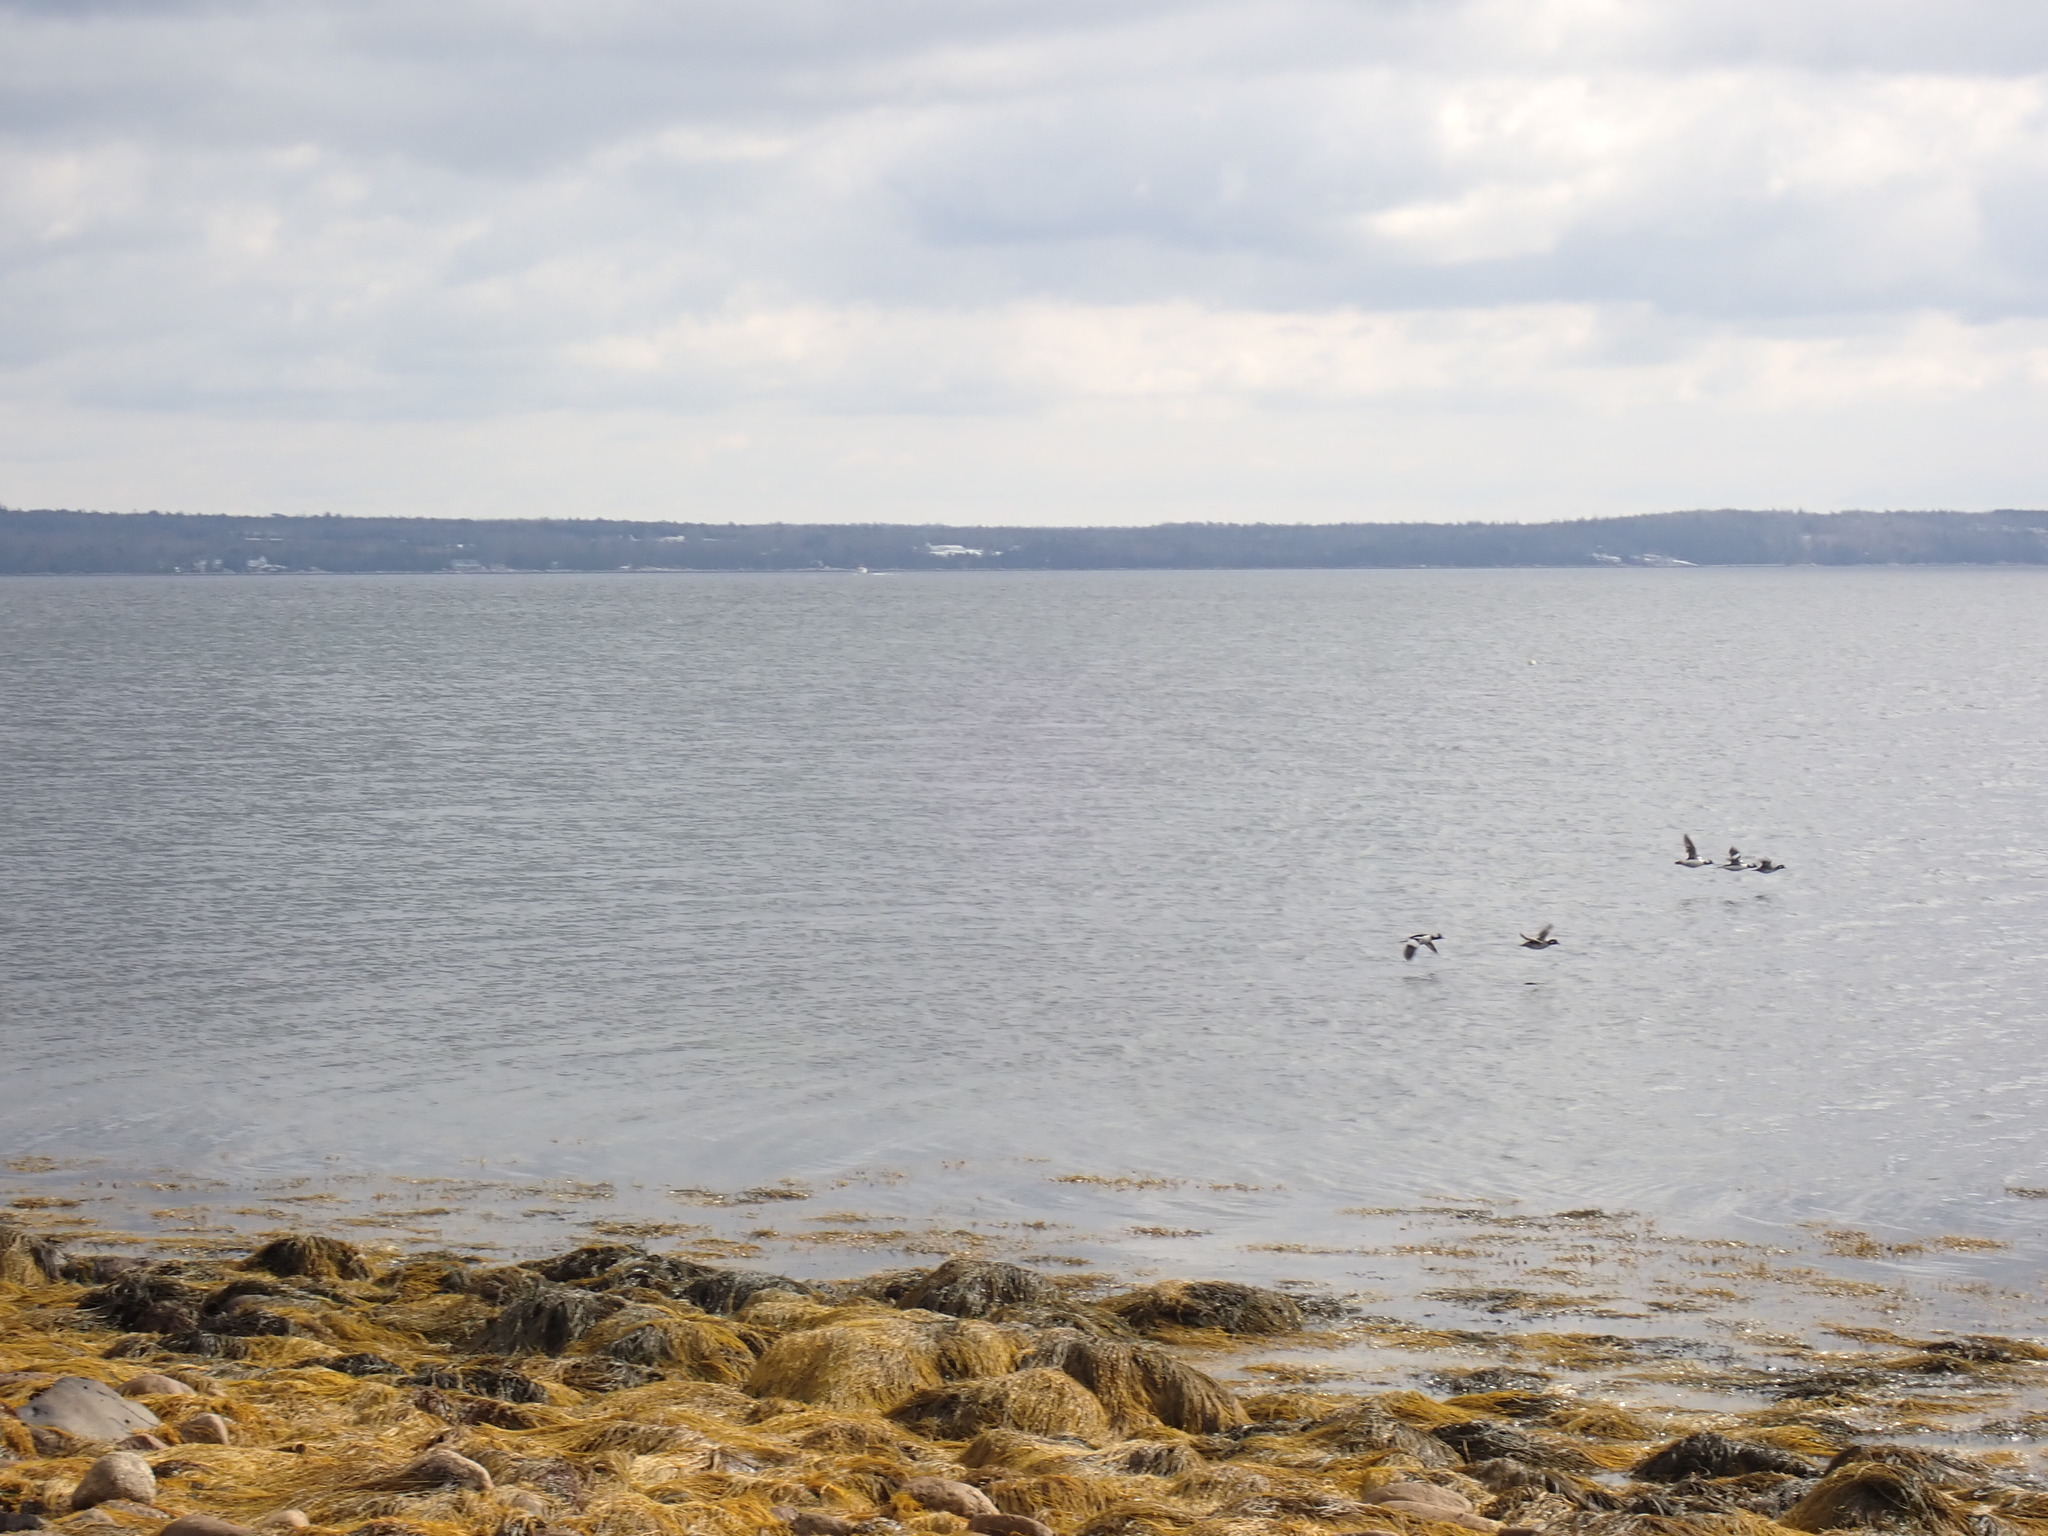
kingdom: Animalia
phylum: Chordata
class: Aves
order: Anseriformes
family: Anatidae
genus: Bucephala
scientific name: Bucephala albeola
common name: Bufflehead
